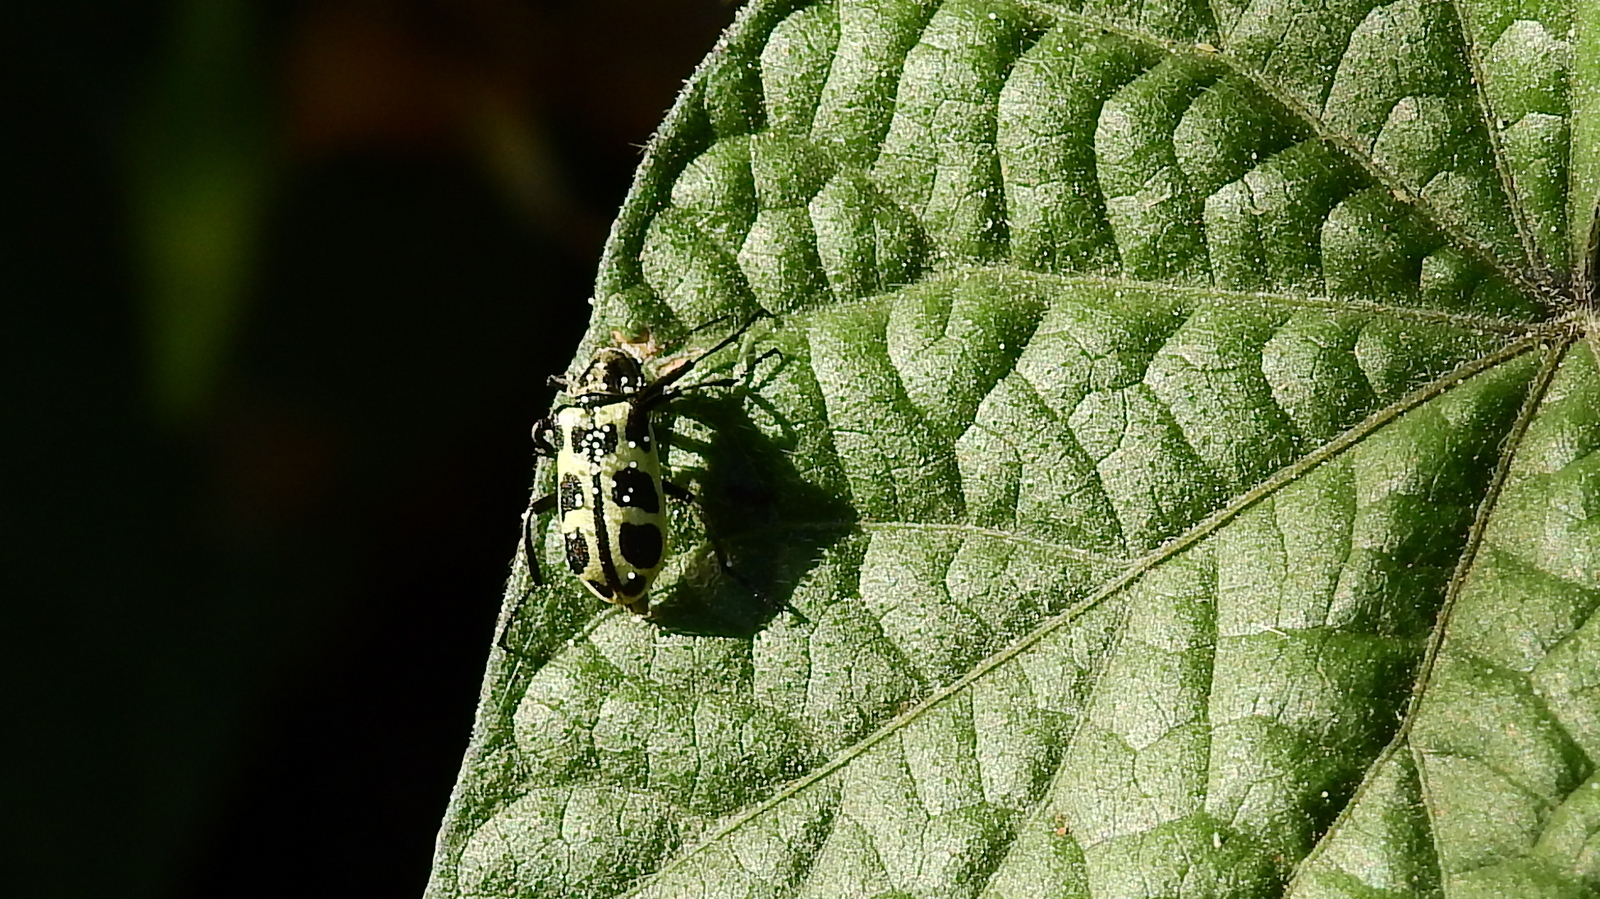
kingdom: Animalia
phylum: Arthropoda
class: Insecta
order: Coleoptera
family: Melyridae
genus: Astylus
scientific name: Astylus atromaculatus
